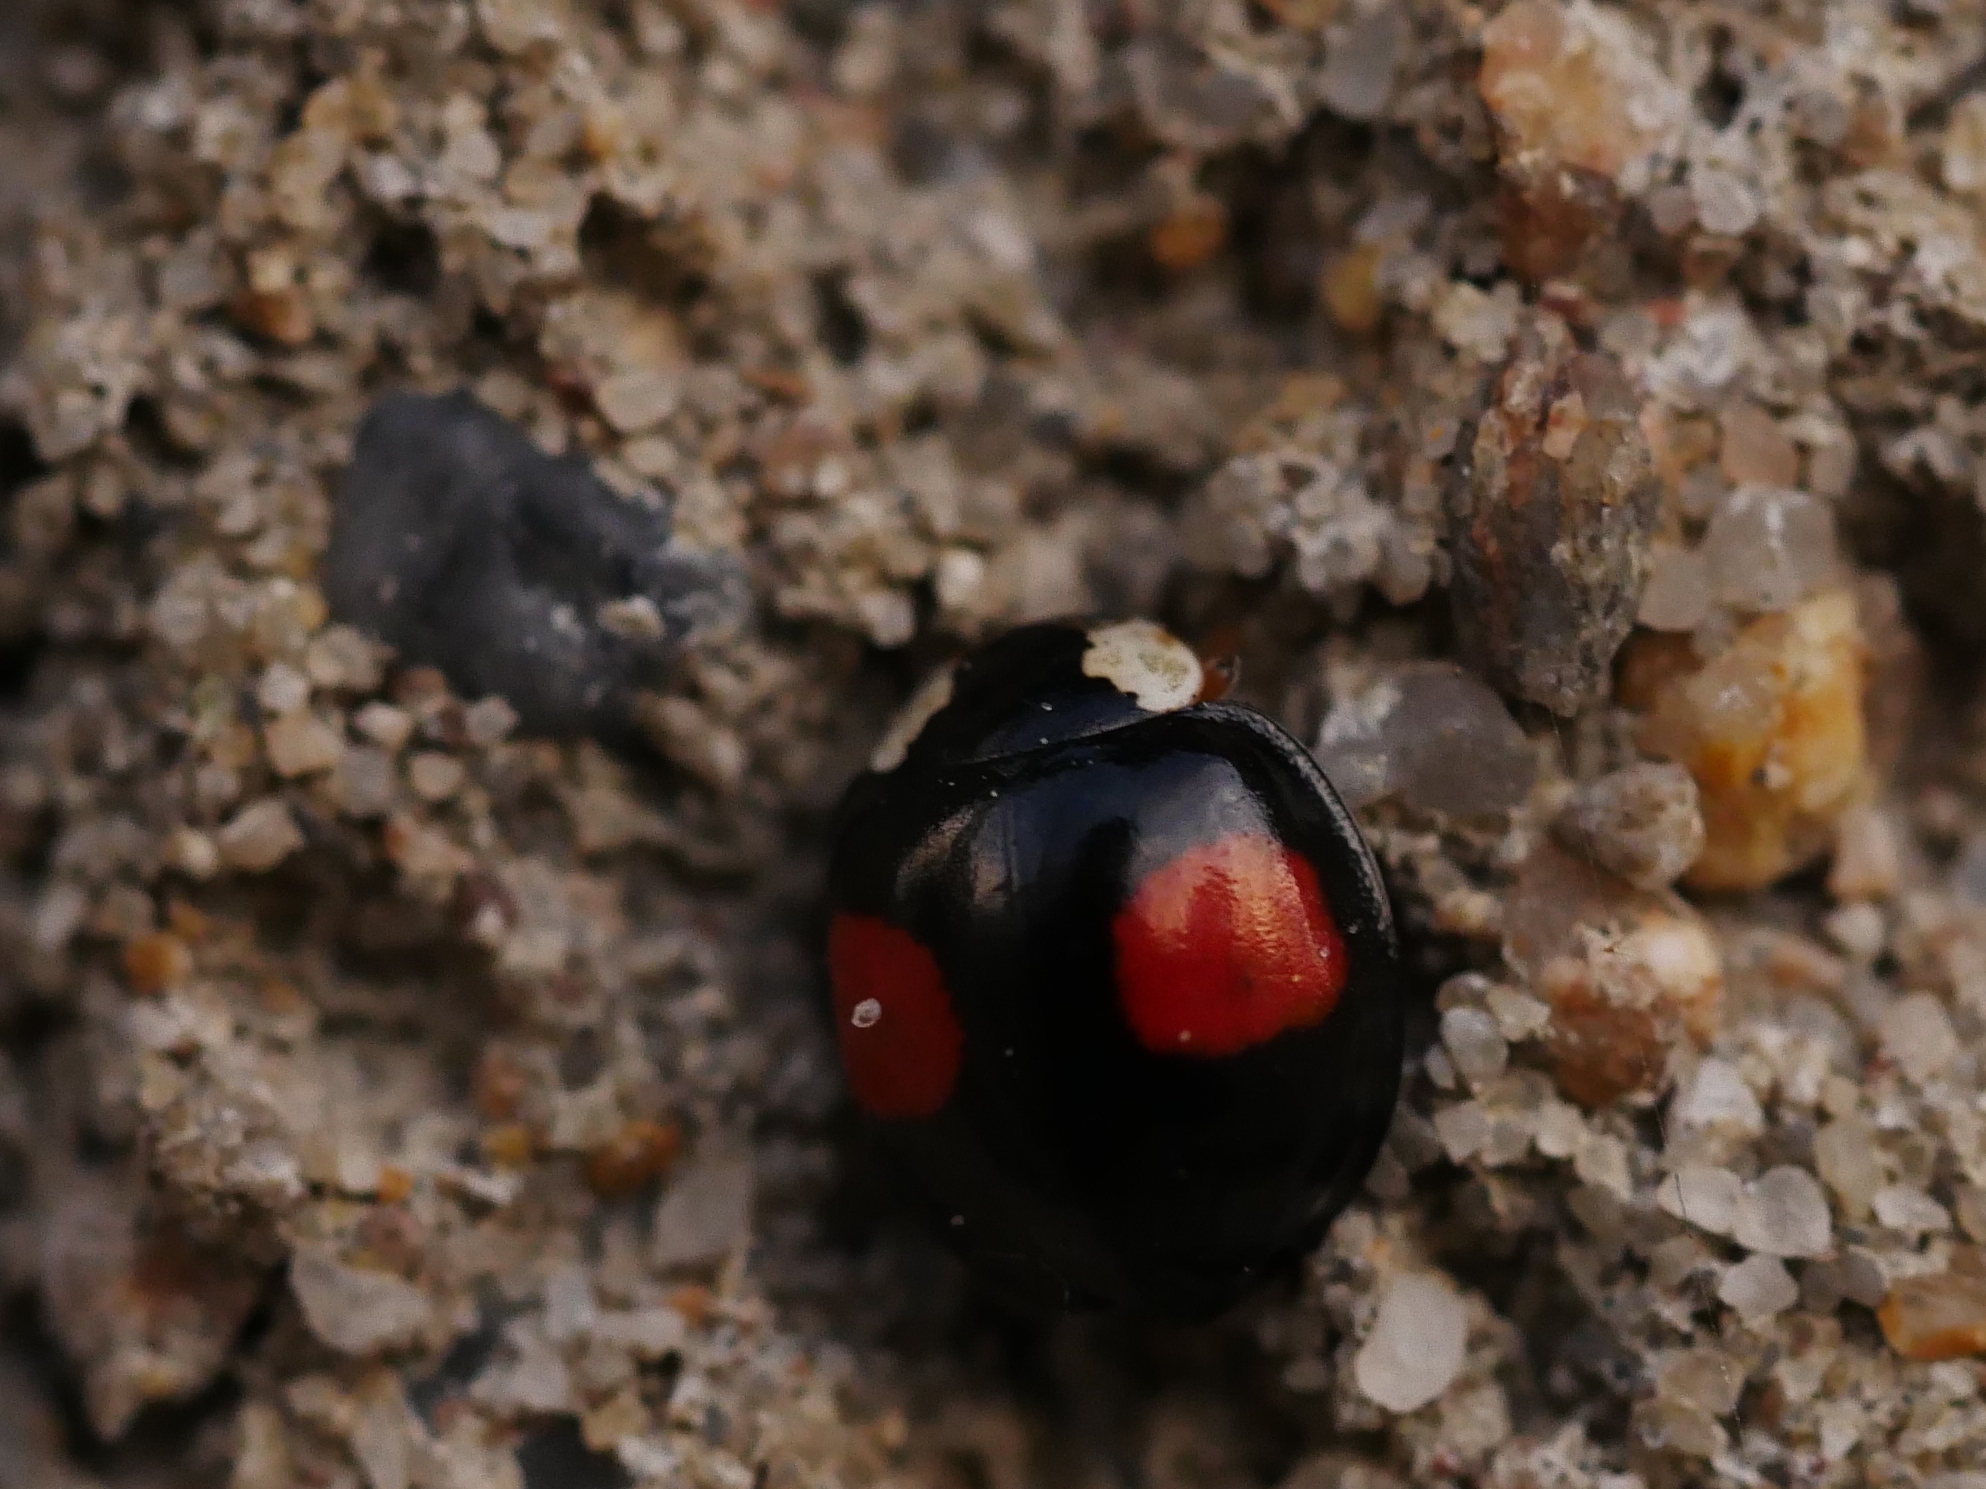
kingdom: Animalia
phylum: Arthropoda
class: Insecta
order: Coleoptera
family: Coccinellidae
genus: Harmonia
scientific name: Harmonia axyridis
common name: Harlequin ladybird
